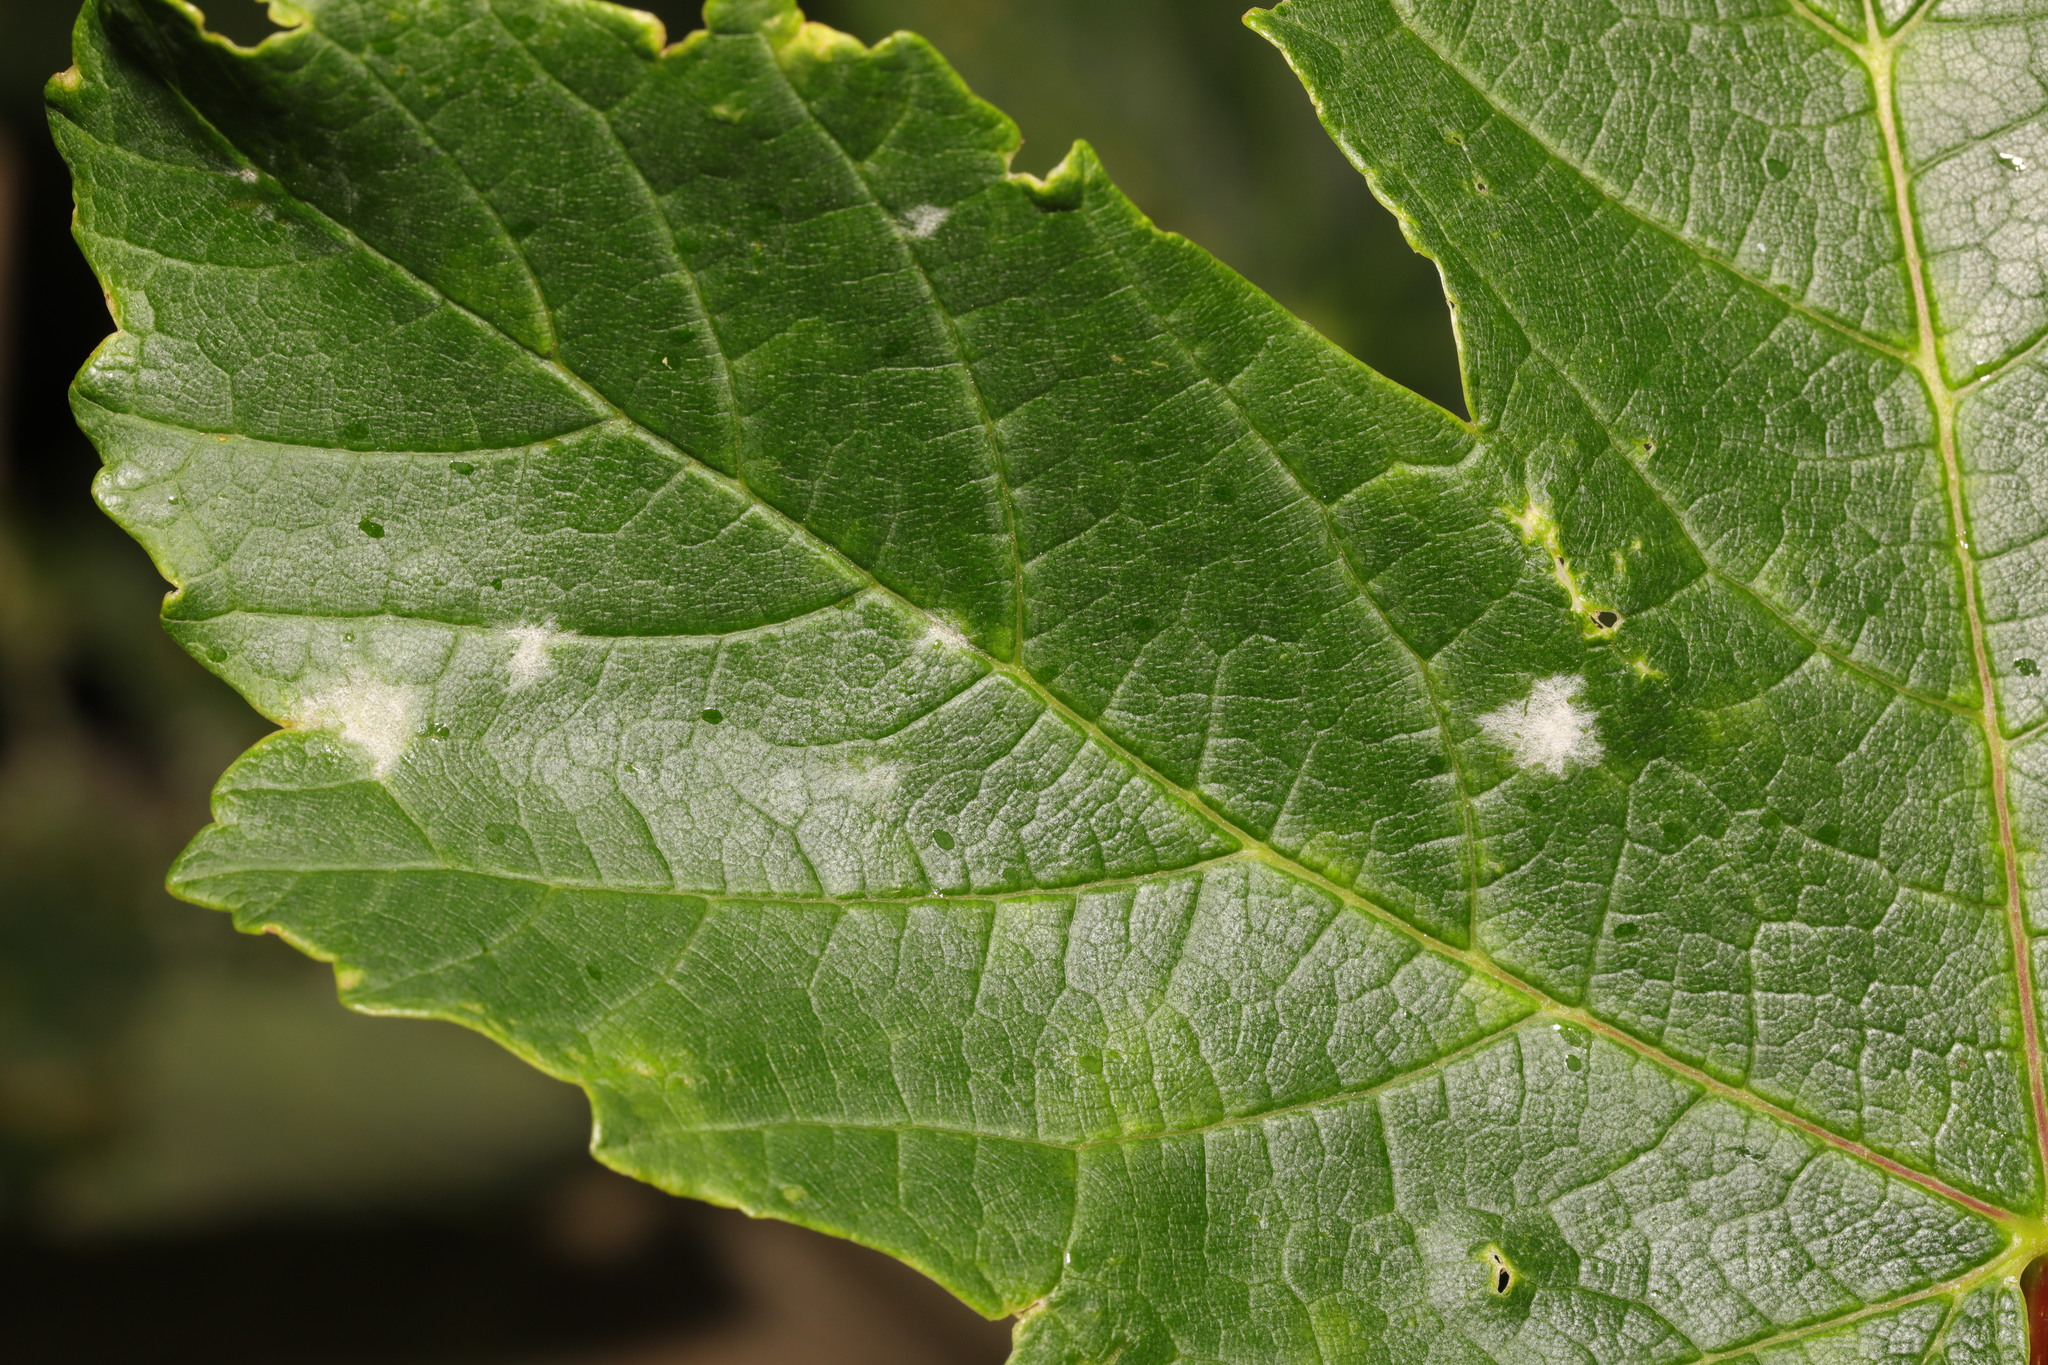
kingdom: Fungi
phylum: Ascomycota
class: Leotiomycetes
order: Helotiales
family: Erysiphaceae
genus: Sawadaea
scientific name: Sawadaea bicornis
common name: Maple mildew
